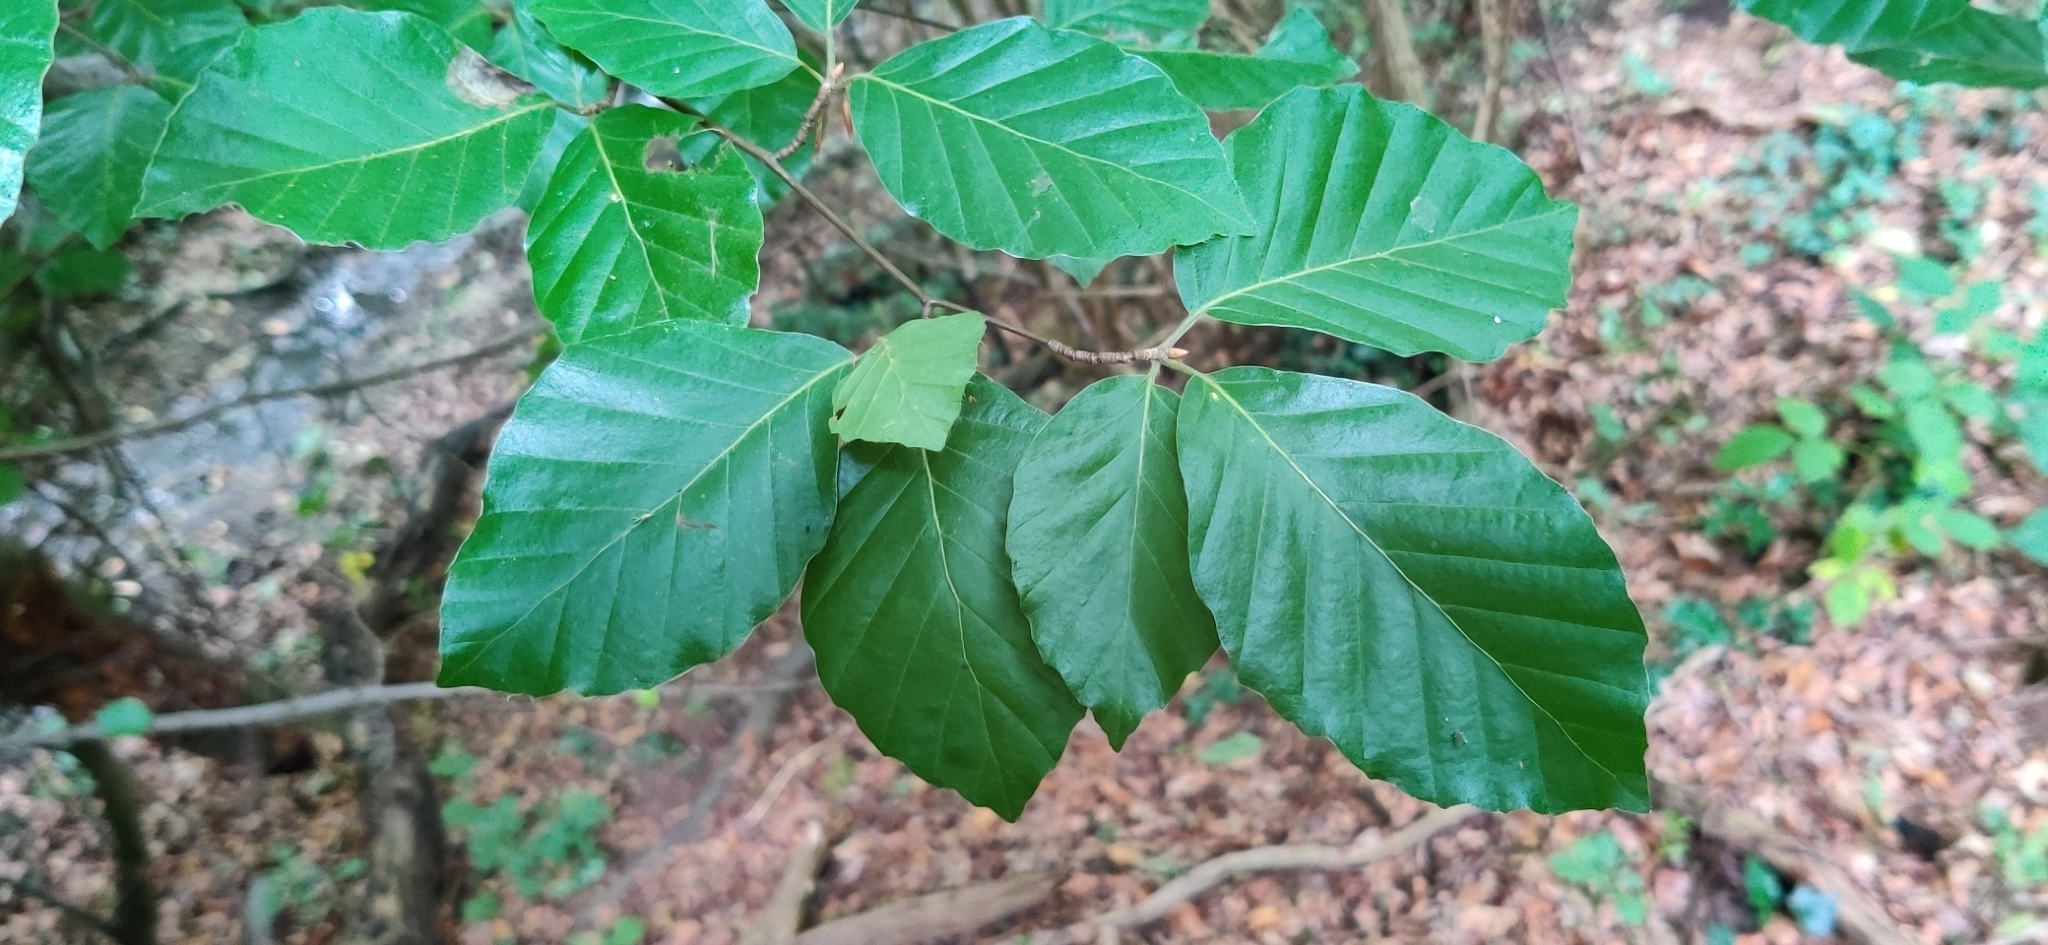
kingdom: Plantae
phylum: Tracheophyta
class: Magnoliopsida
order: Fagales
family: Fagaceae
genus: Fagus
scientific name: Fagus sylvatica
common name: Beech
